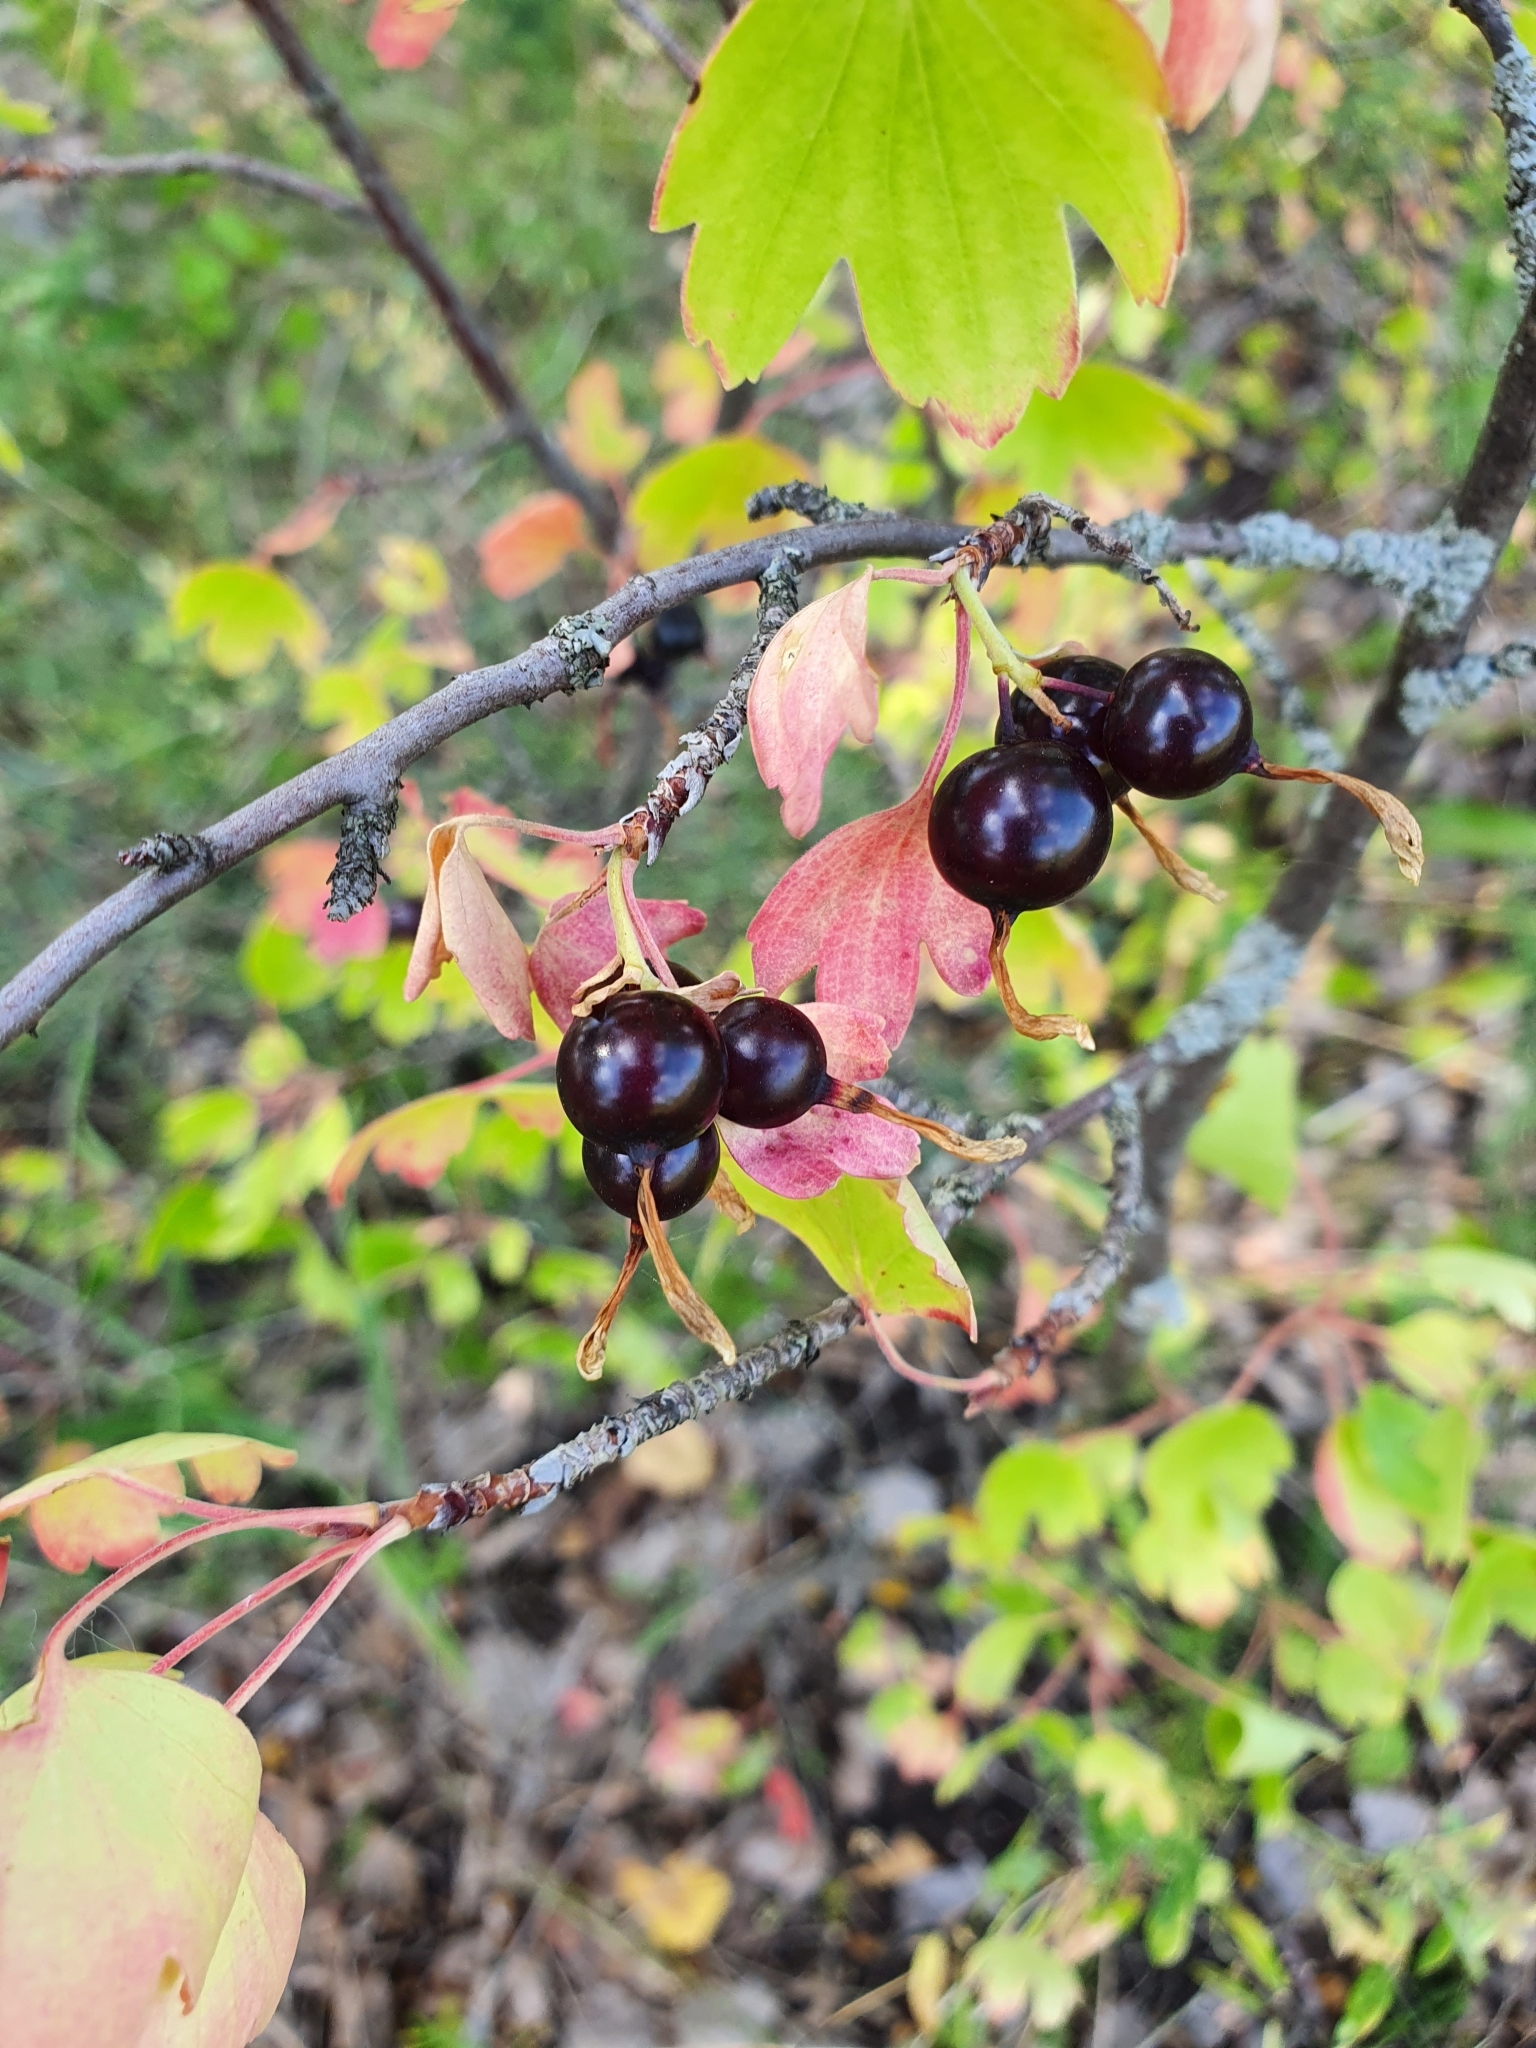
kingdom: Plantae
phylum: Tracheophyta
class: Magnoliopsida
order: Saxifragales
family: Grossulariaceae
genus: Ribes
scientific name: Ribes aureum
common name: Golden currant
